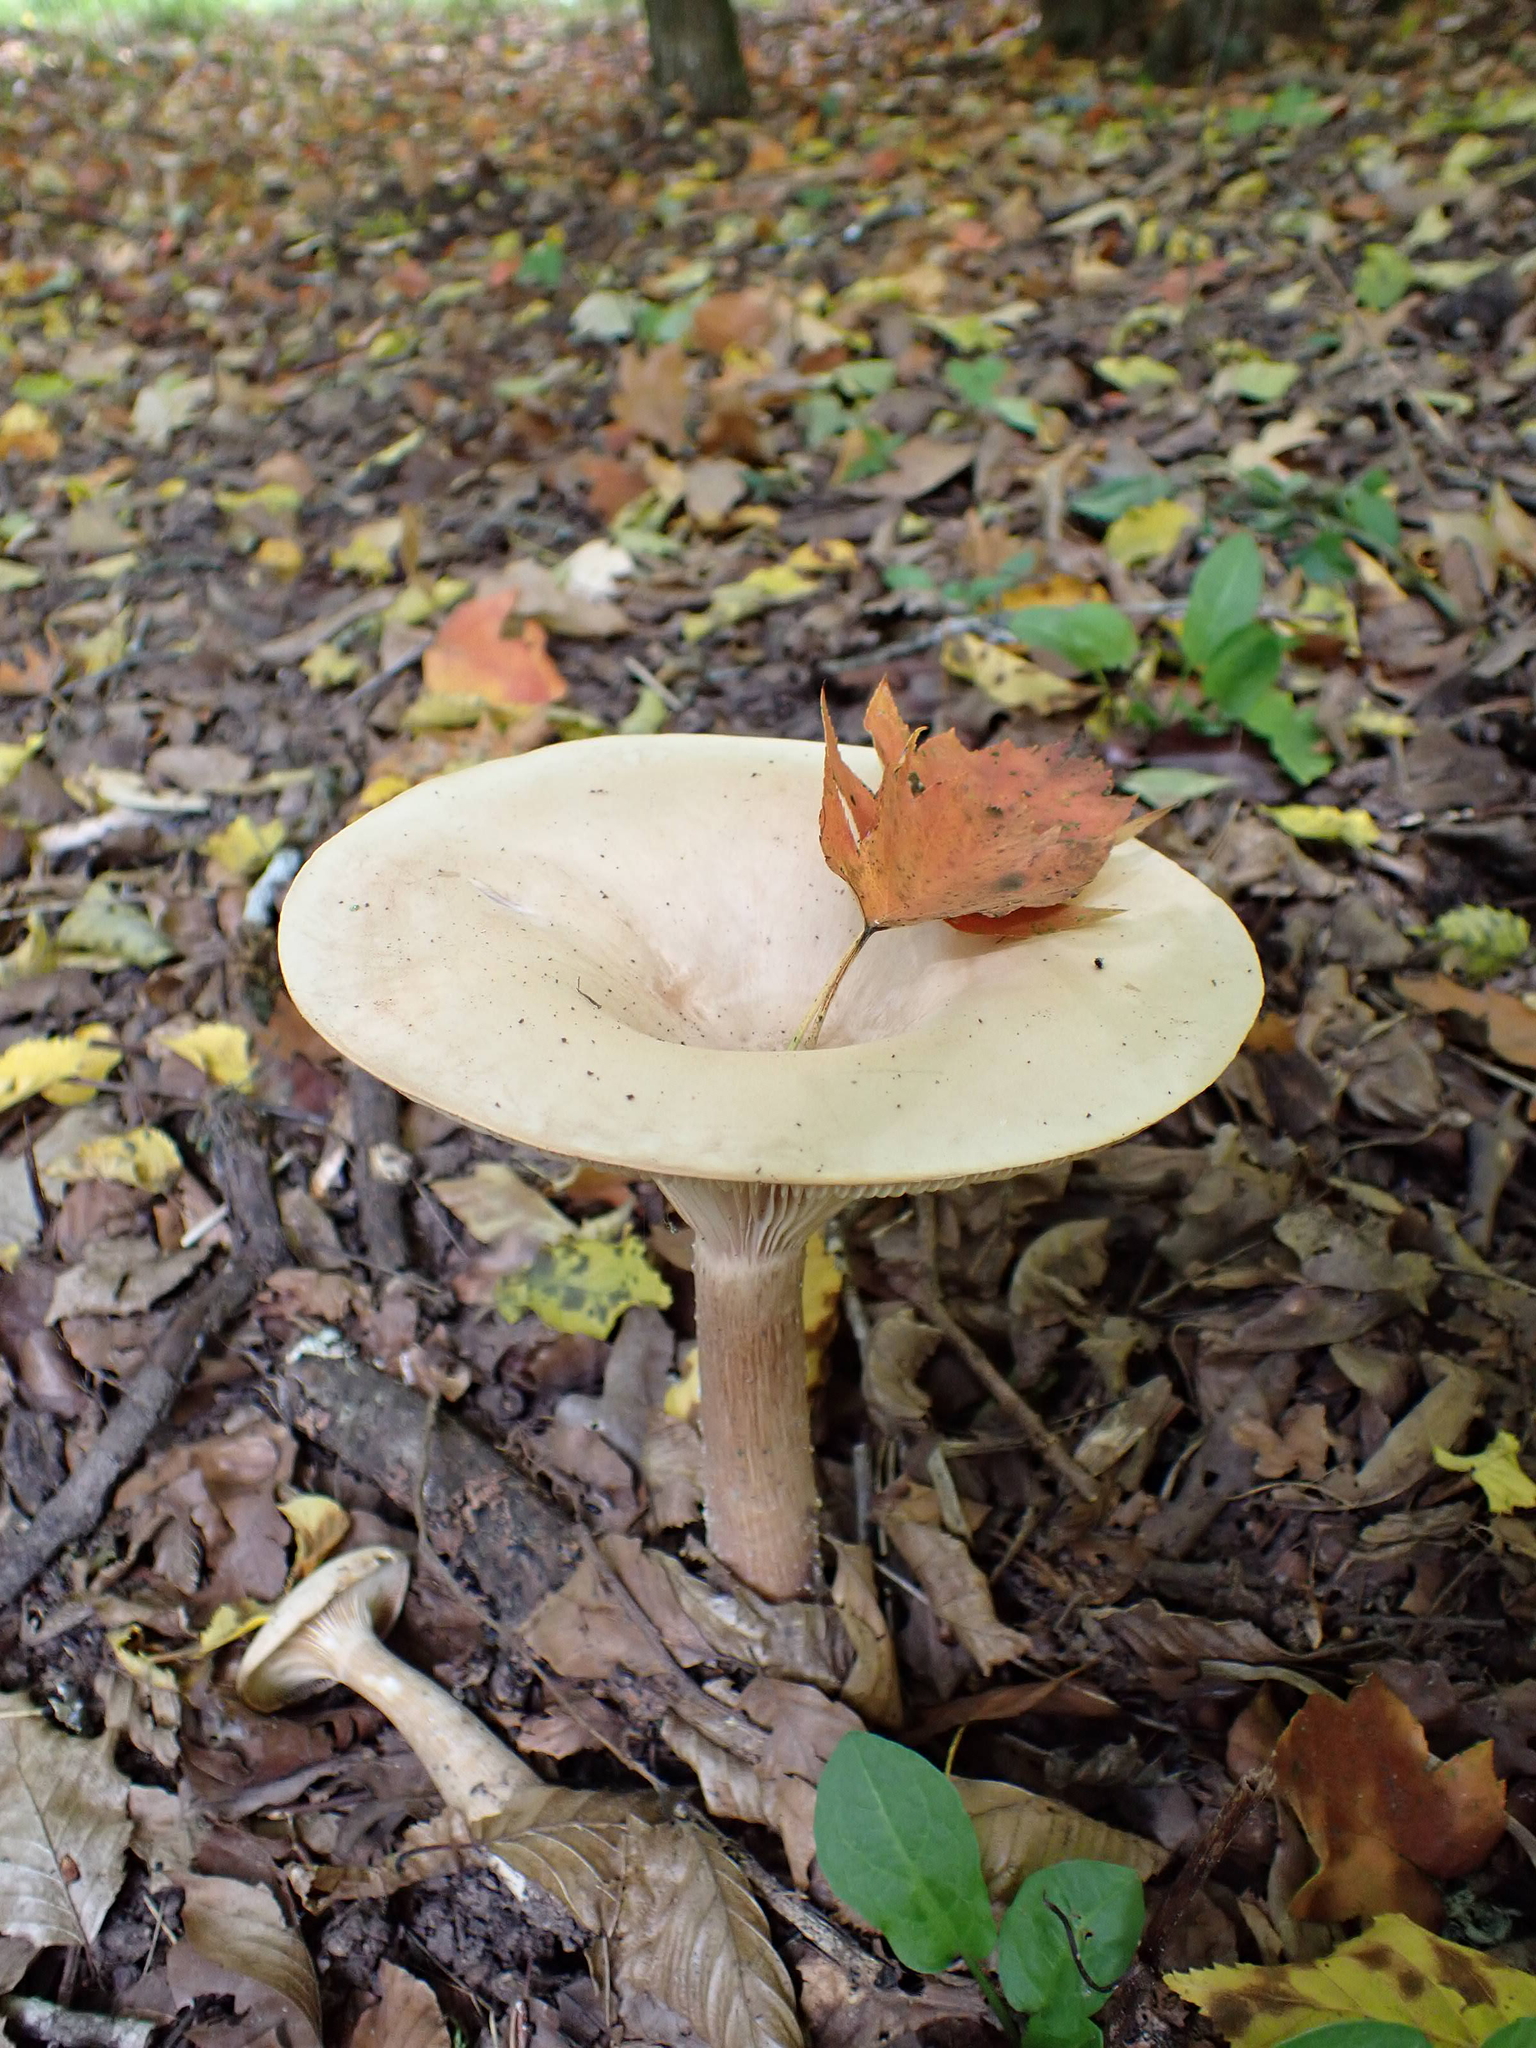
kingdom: Fungi
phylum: Basidiomycota
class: Agaricomycetes
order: Agaricales
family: Tricholomataceae
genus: Infundibulicybe
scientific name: Infundibulicybe geotropa
